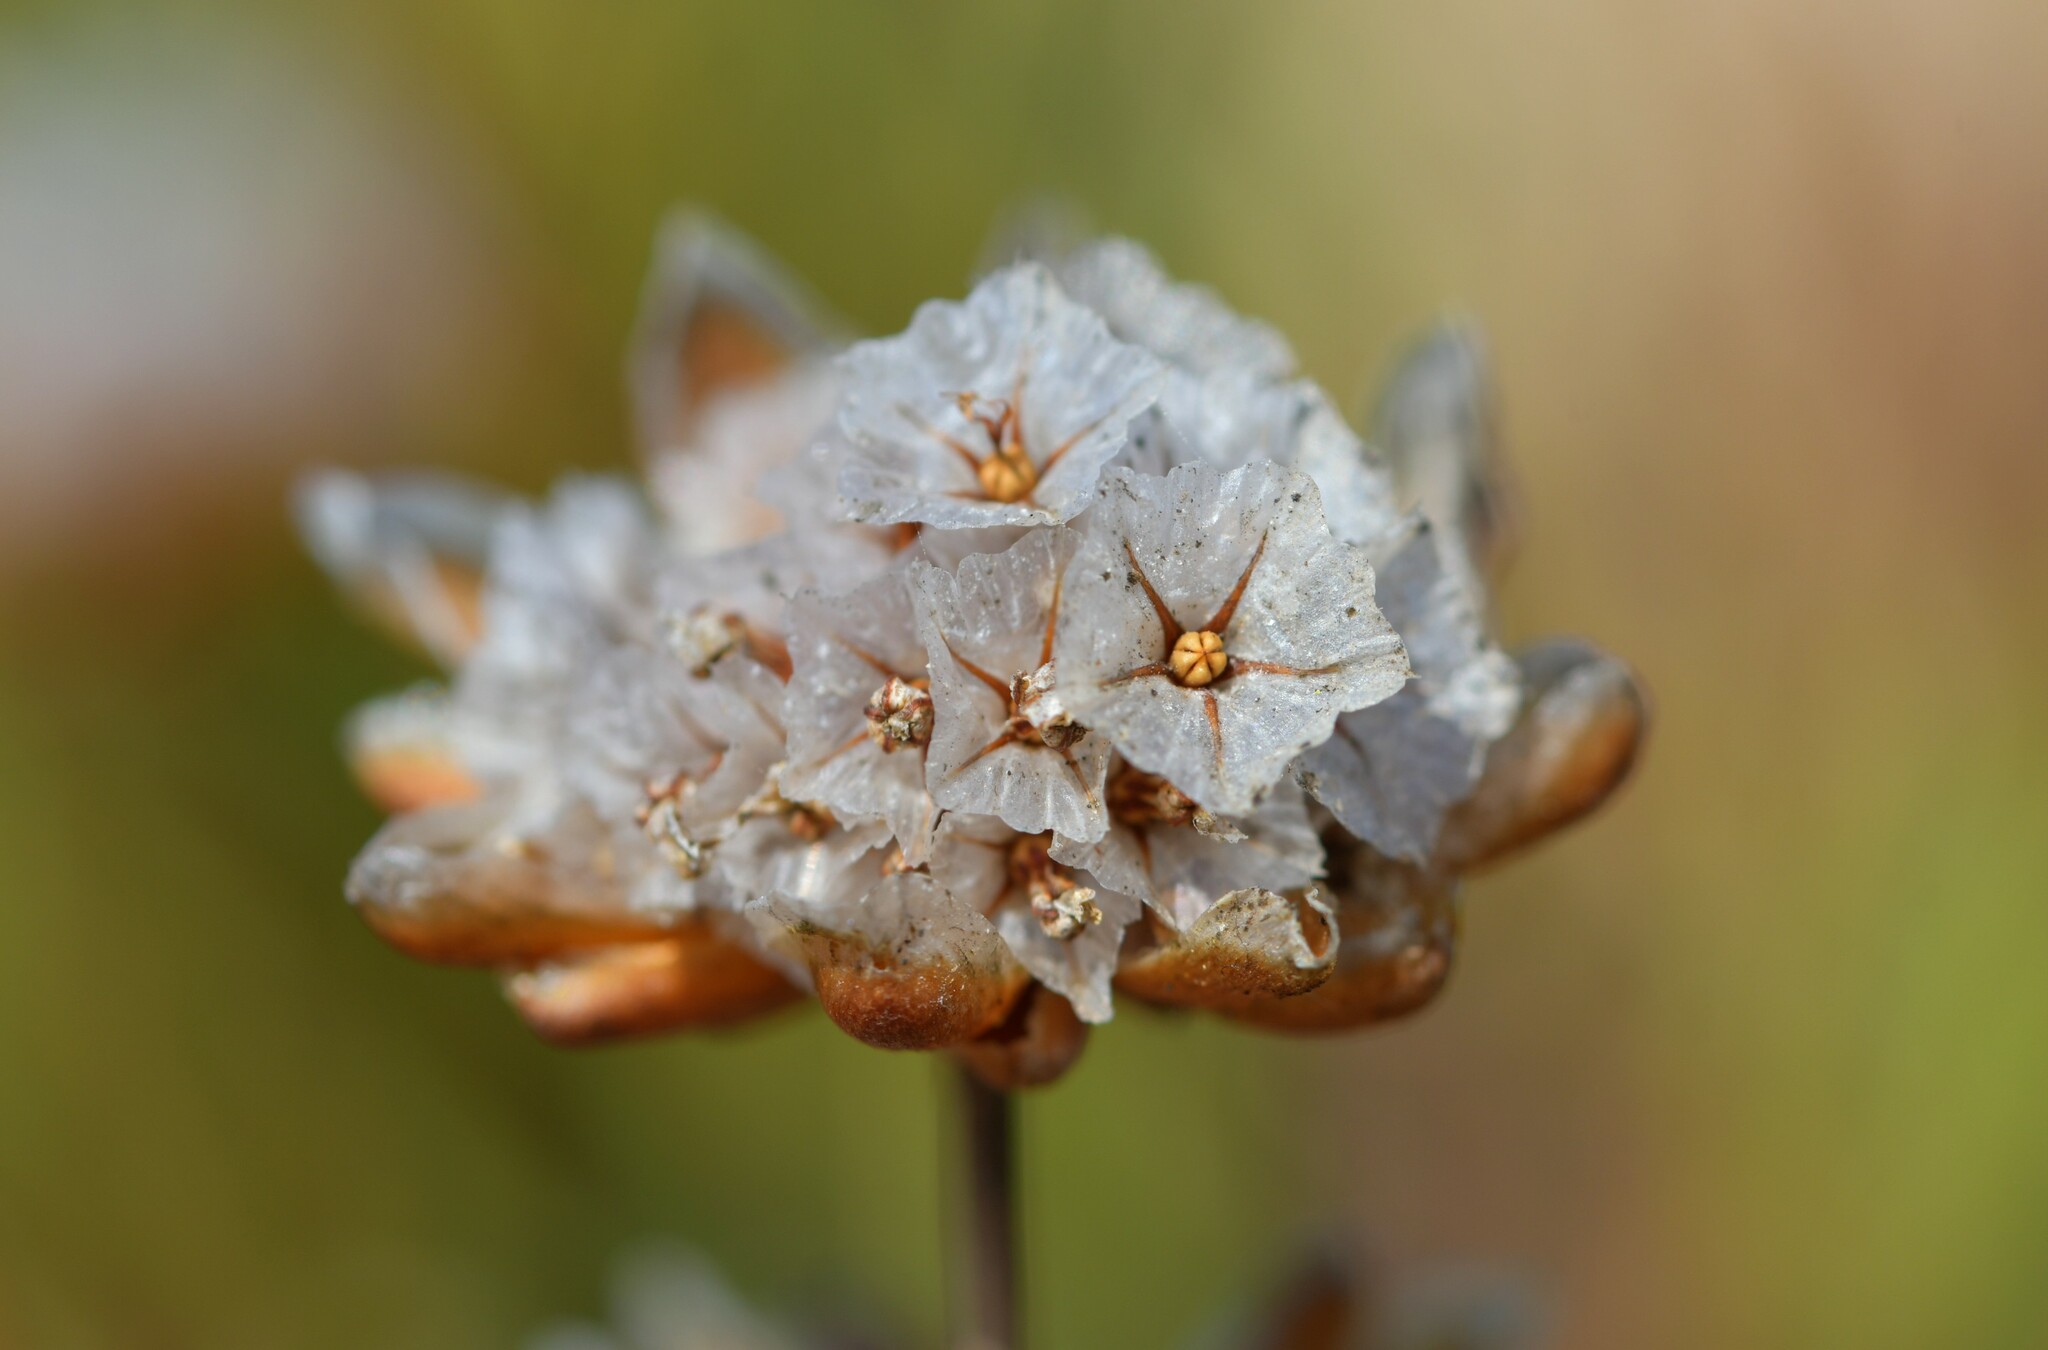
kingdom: Plantae
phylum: Tracheophyta
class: Magnoliopsida
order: Caryophyllales
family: Plumbaginaceae
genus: Armeria
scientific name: Armeria pungens
